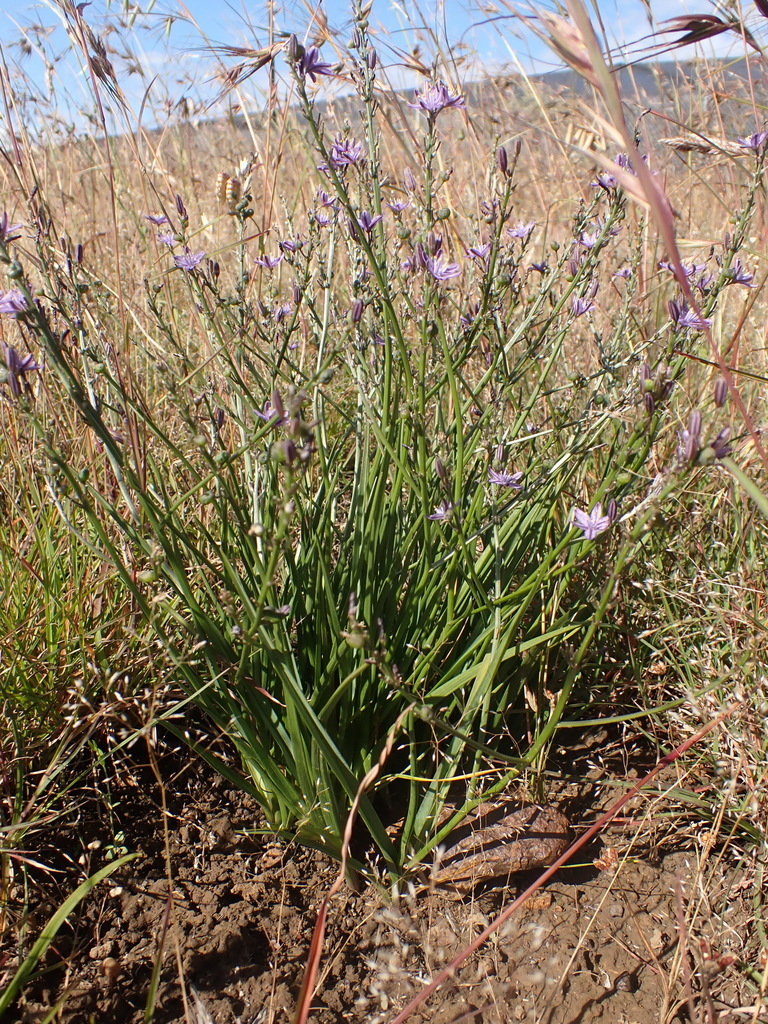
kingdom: Plantae
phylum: Tracheophyta
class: Liliopsida
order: Asparagales
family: Asphodelaceae
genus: Caesia
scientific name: Caesia calliantha
